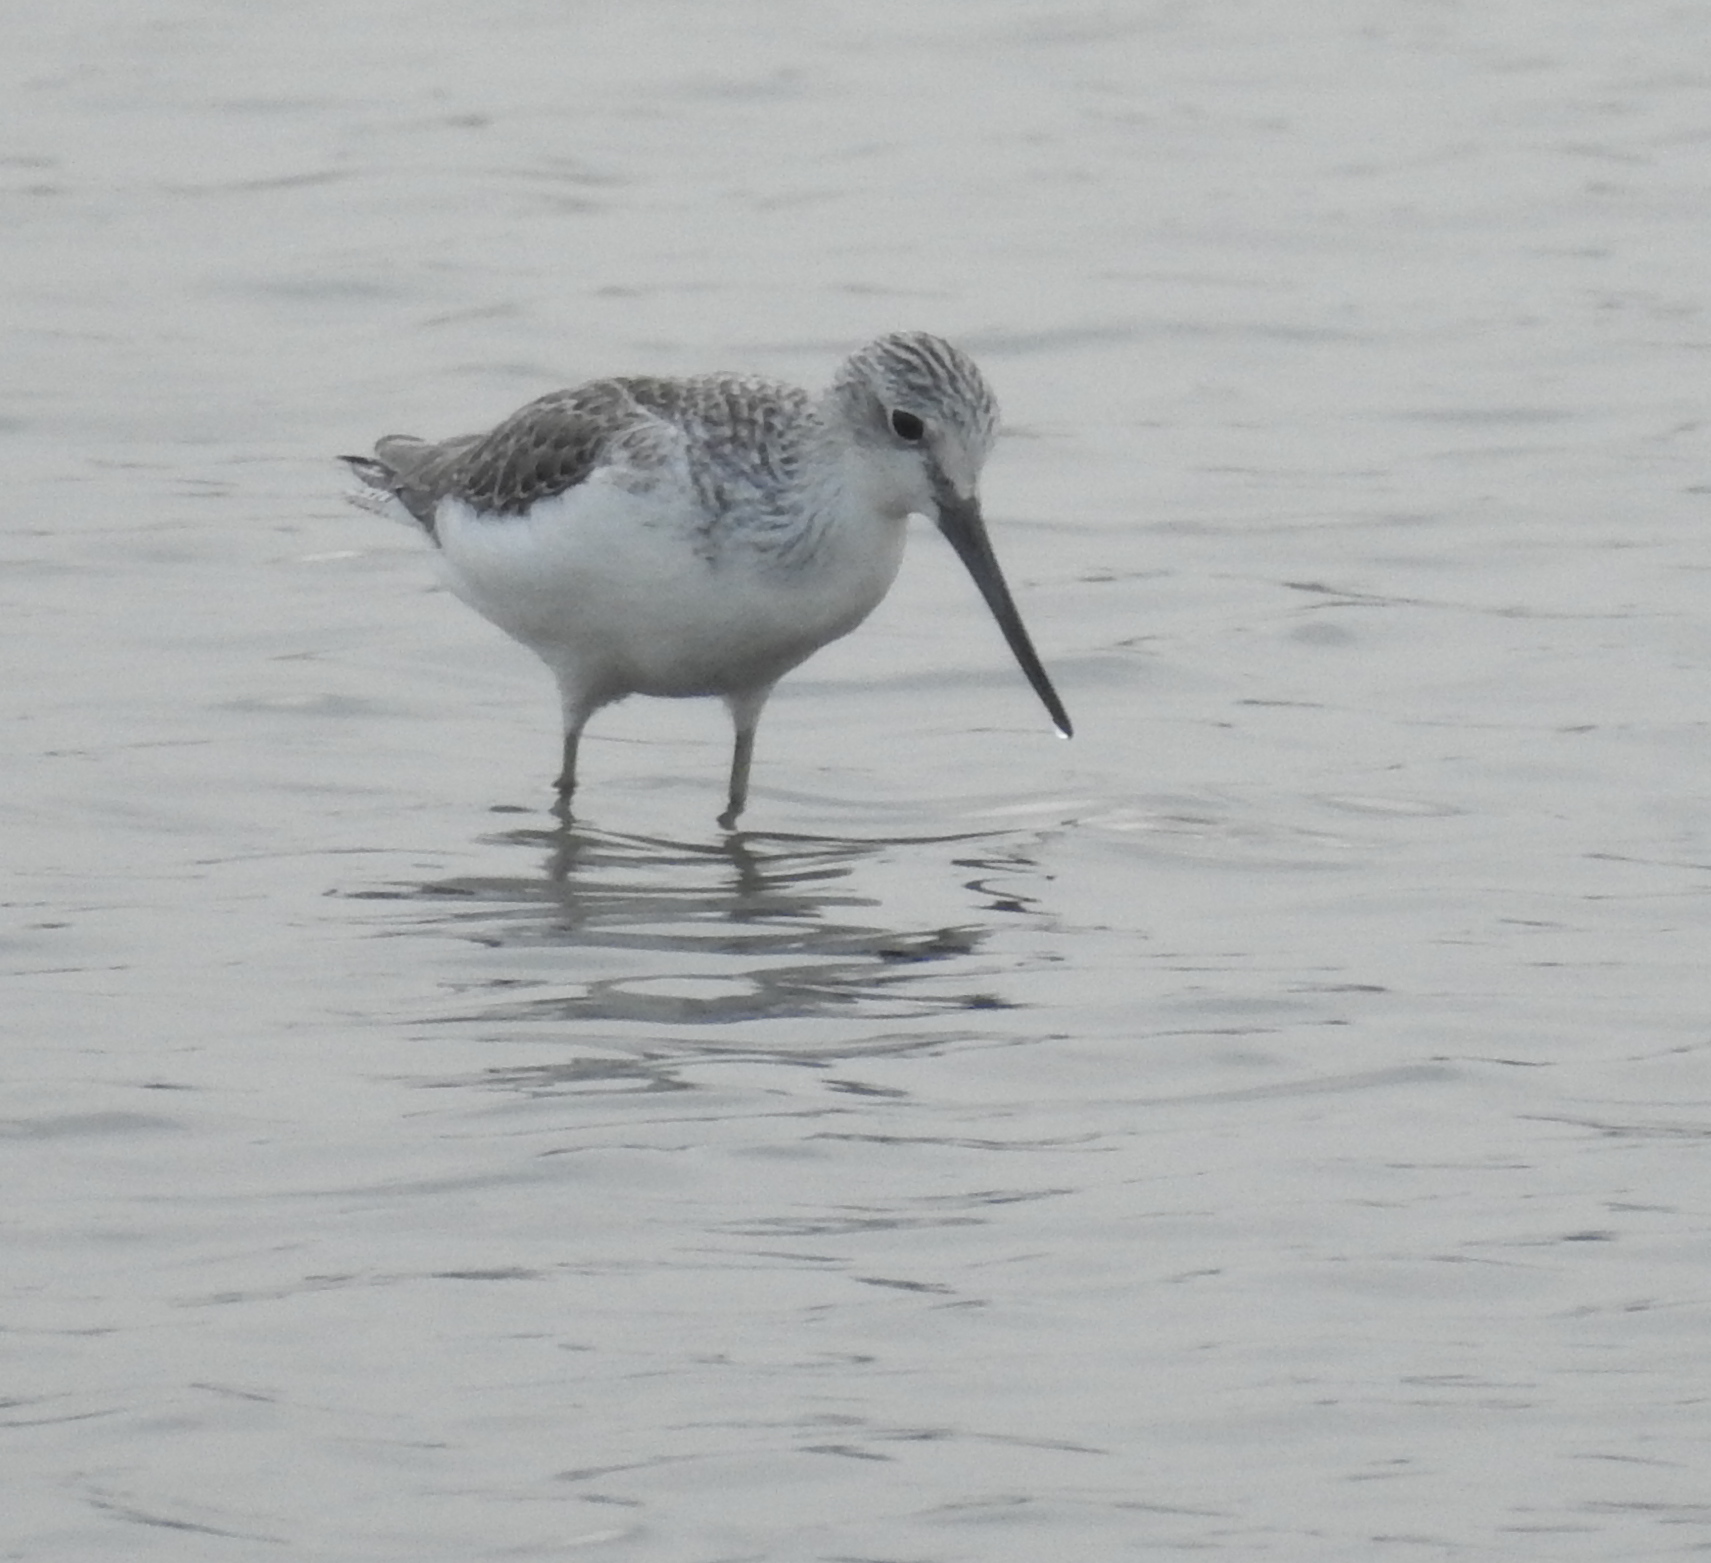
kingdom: Animalia
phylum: Chordata
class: Aves
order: Charadriiformes
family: Scolopacidae
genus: Tringa
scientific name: Tringa nebularia
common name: Common greenshank
